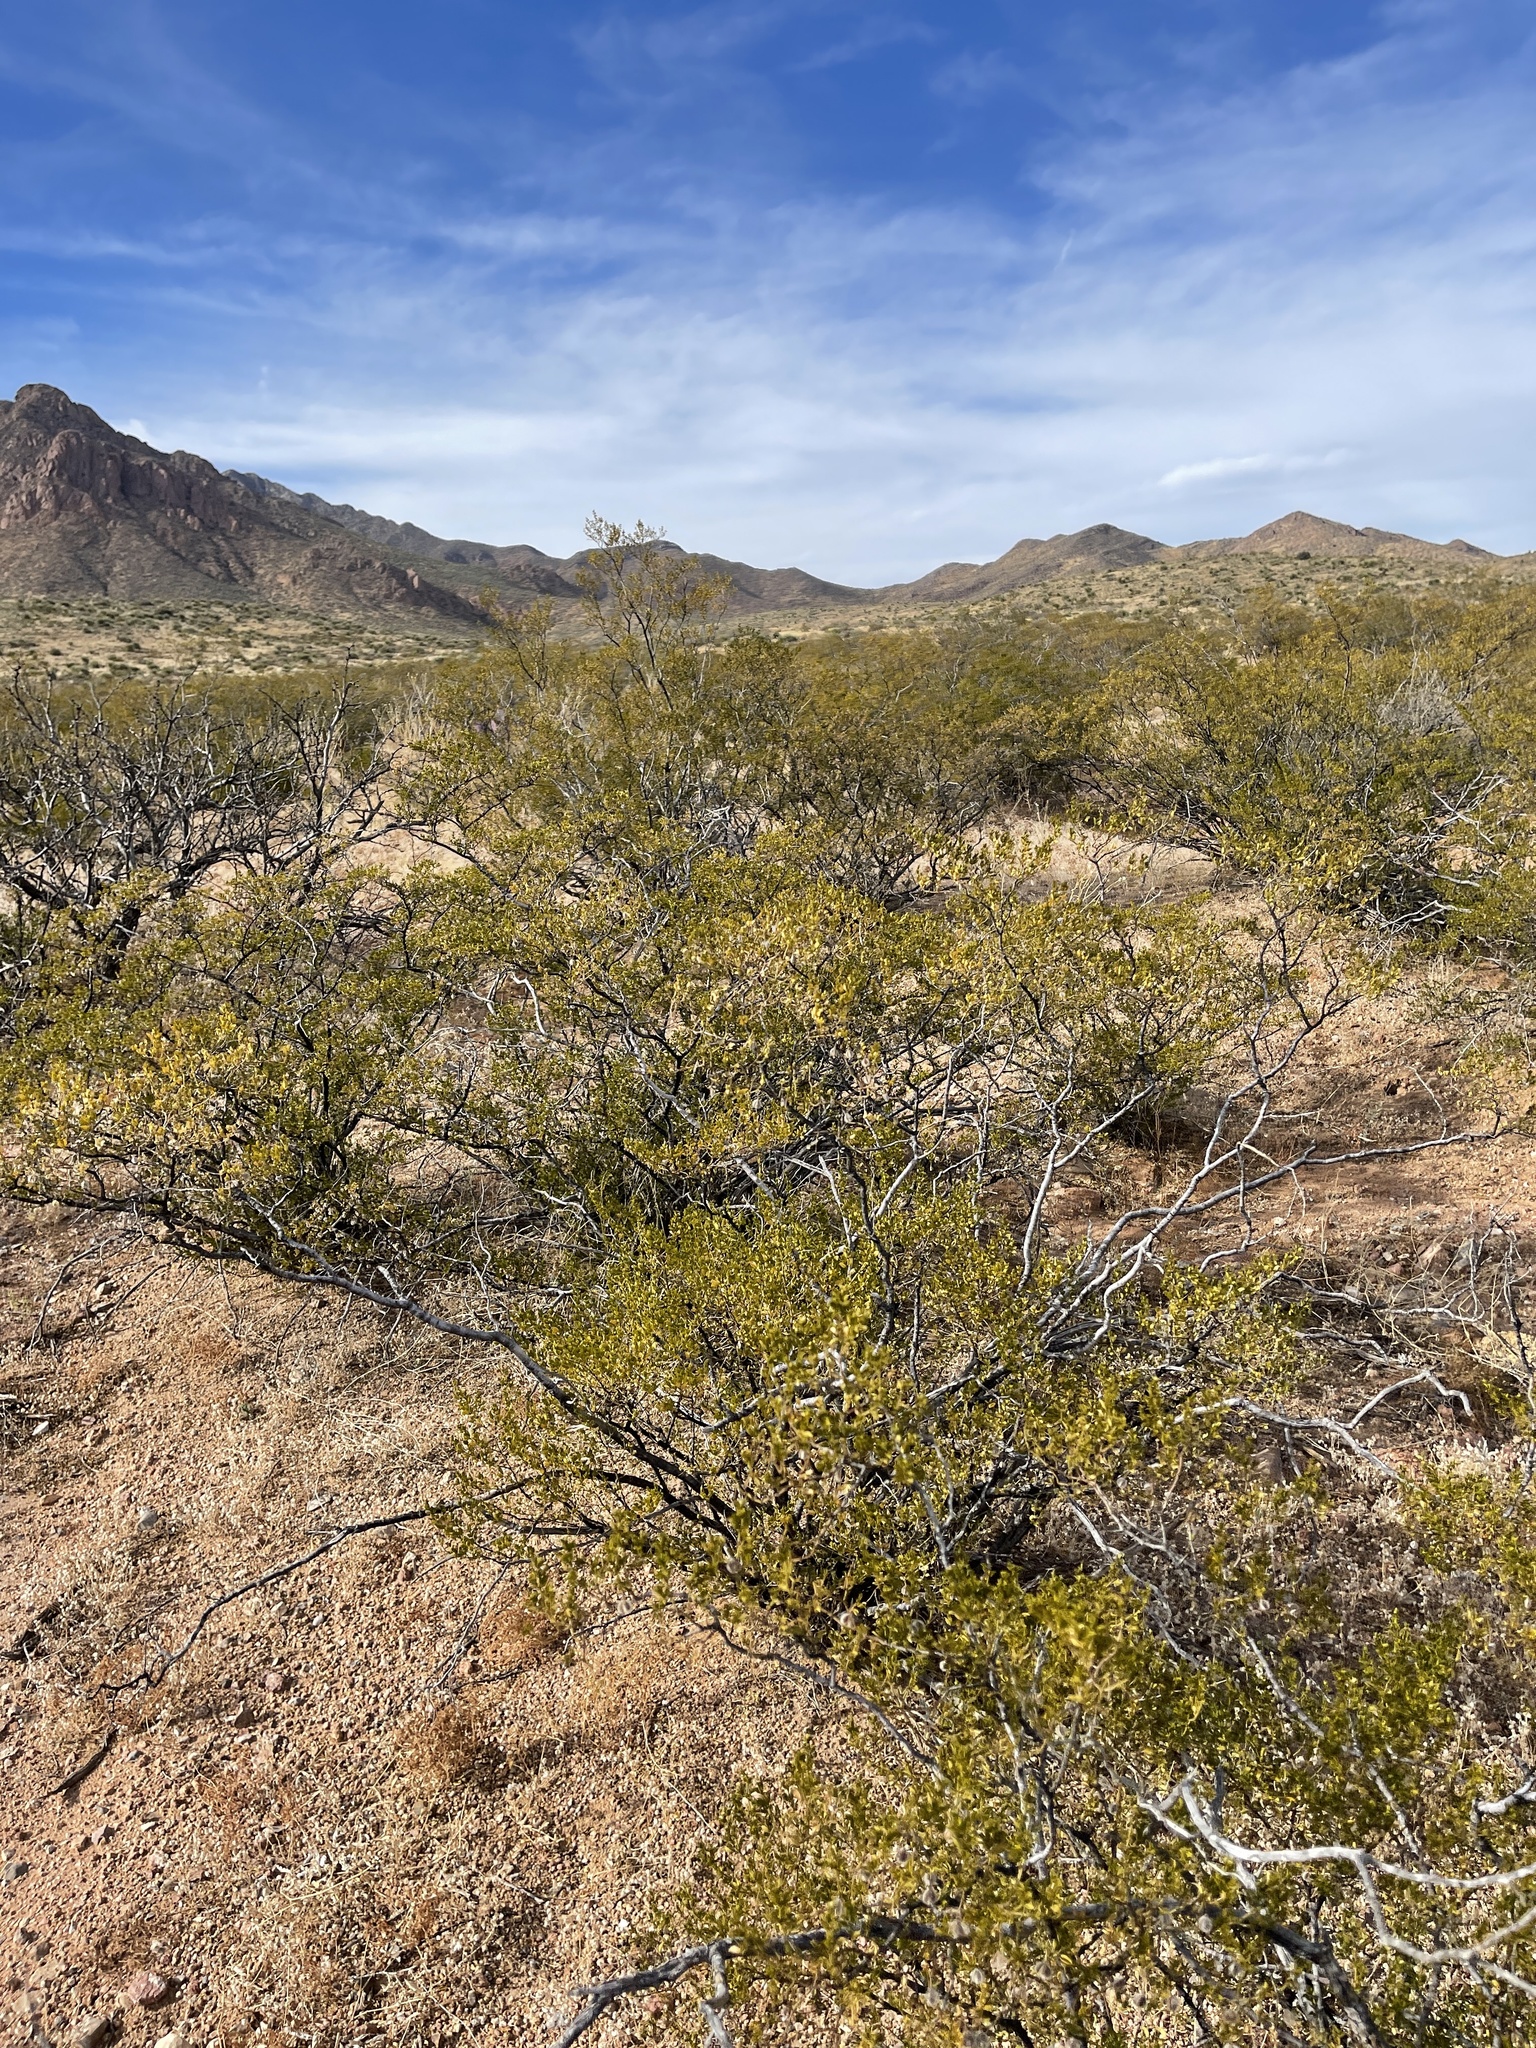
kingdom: Plantae
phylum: Tracheophyta
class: Magnoliopsida
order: Zygophyllales
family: Zygophyllaceae
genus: Larrea
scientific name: Larrea tridentata
